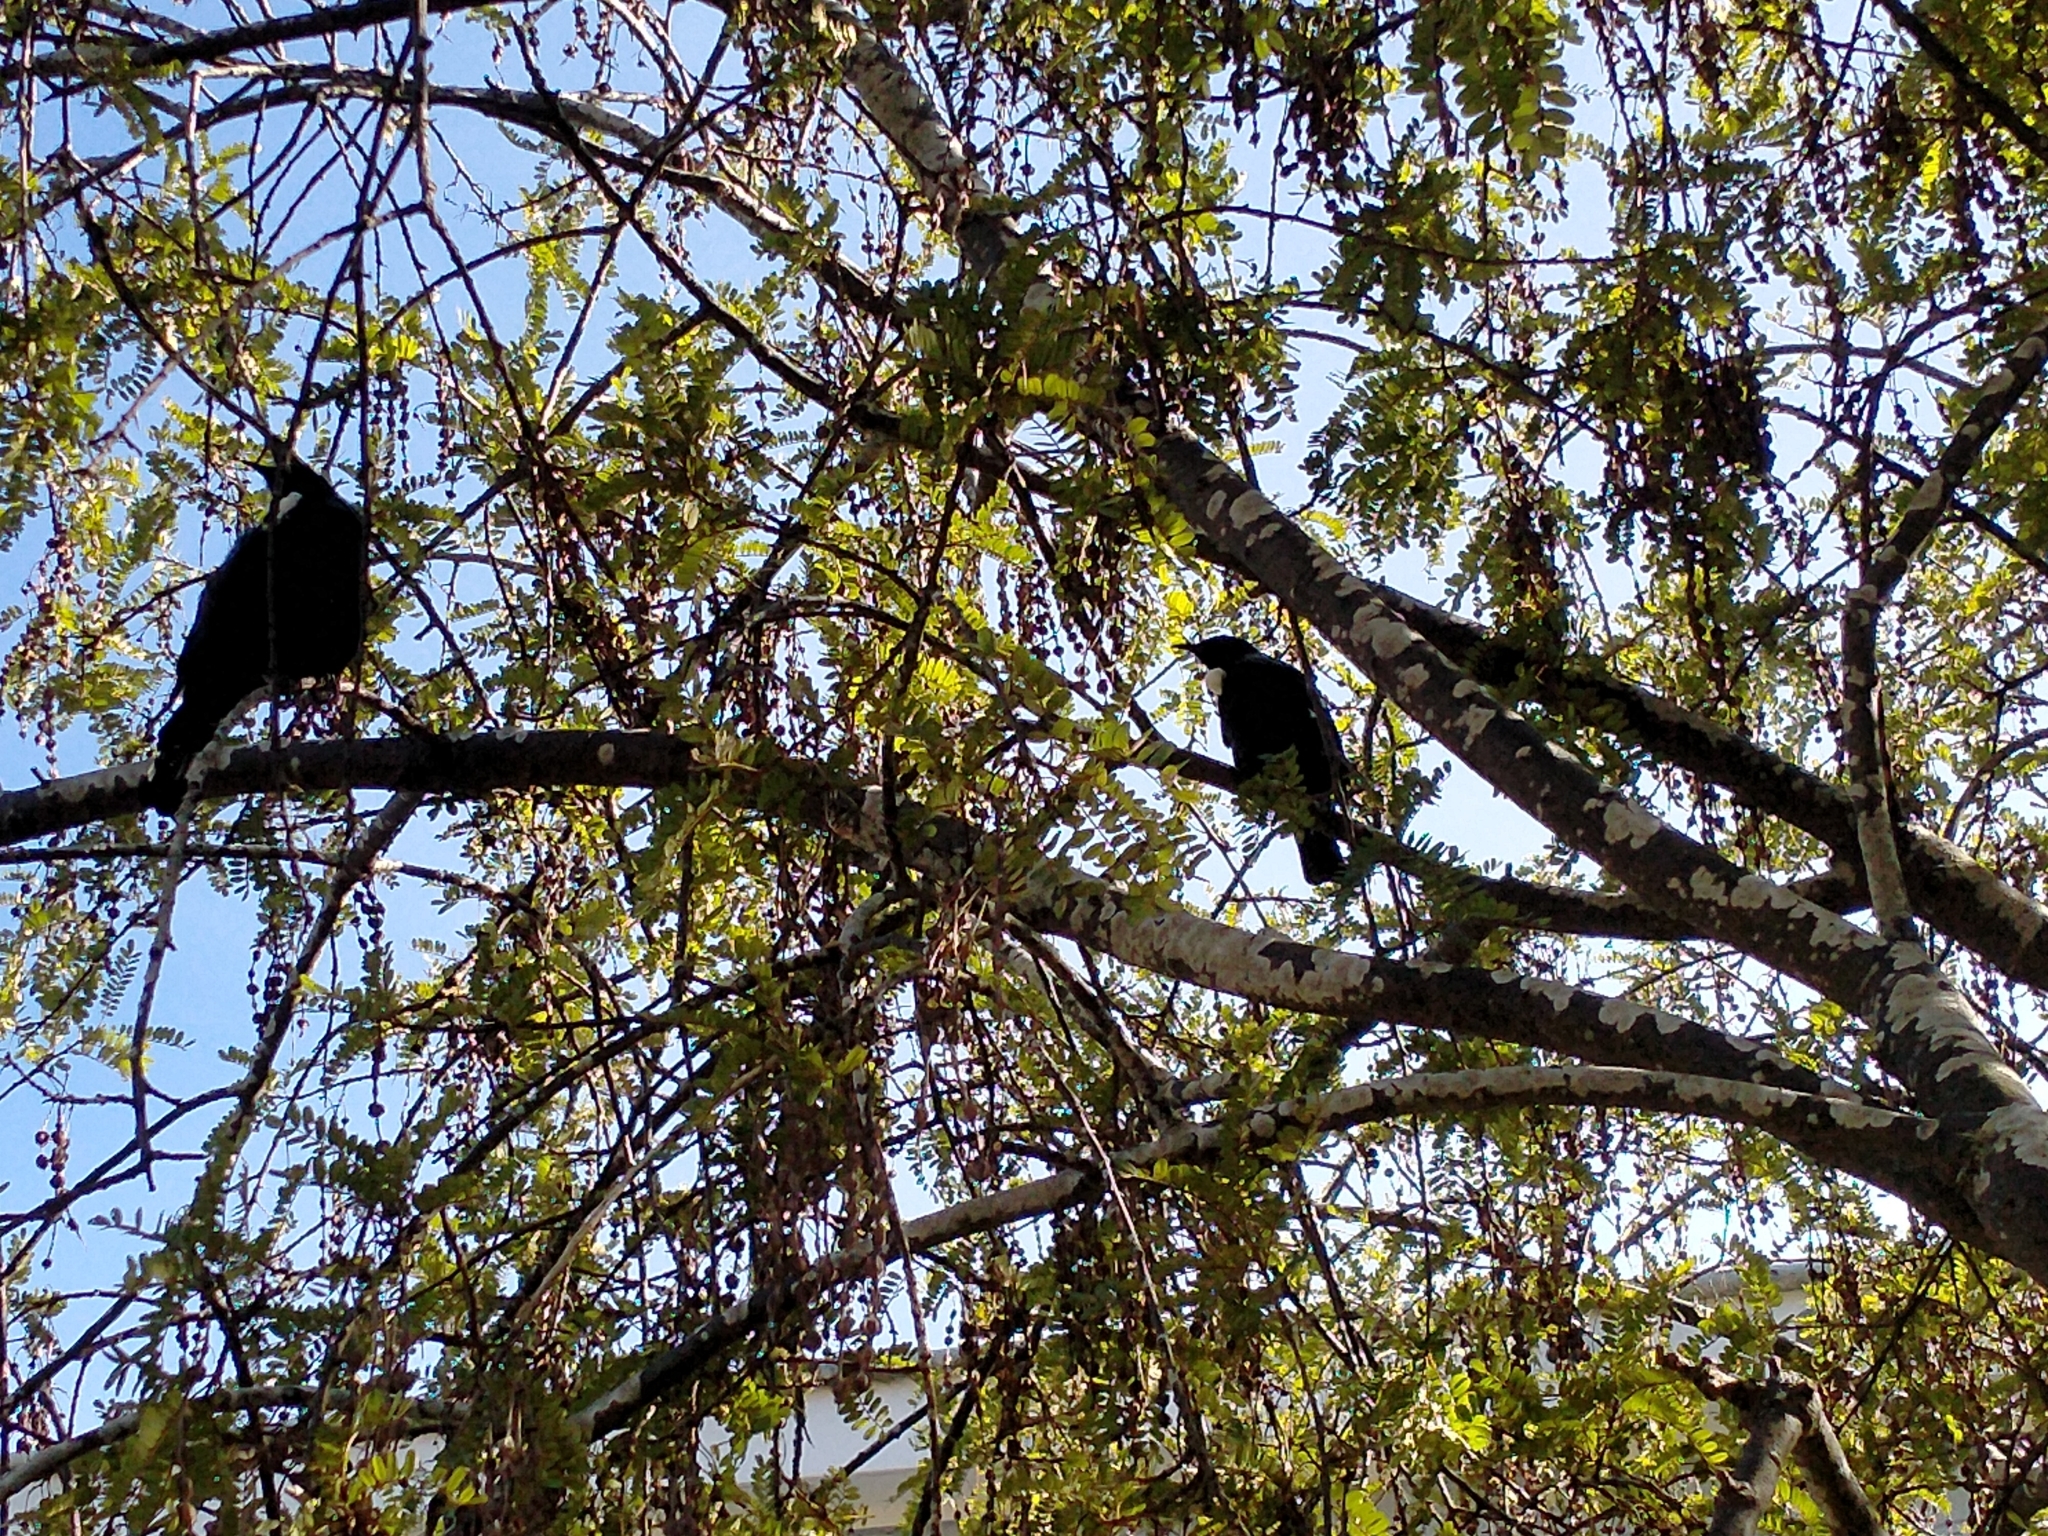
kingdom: Animalia
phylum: Chordata
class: Aves
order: Passeriformes
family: Meliphagidae
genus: Prosthemadera
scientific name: Prosthemadera novaeseelandiae
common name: Tui
